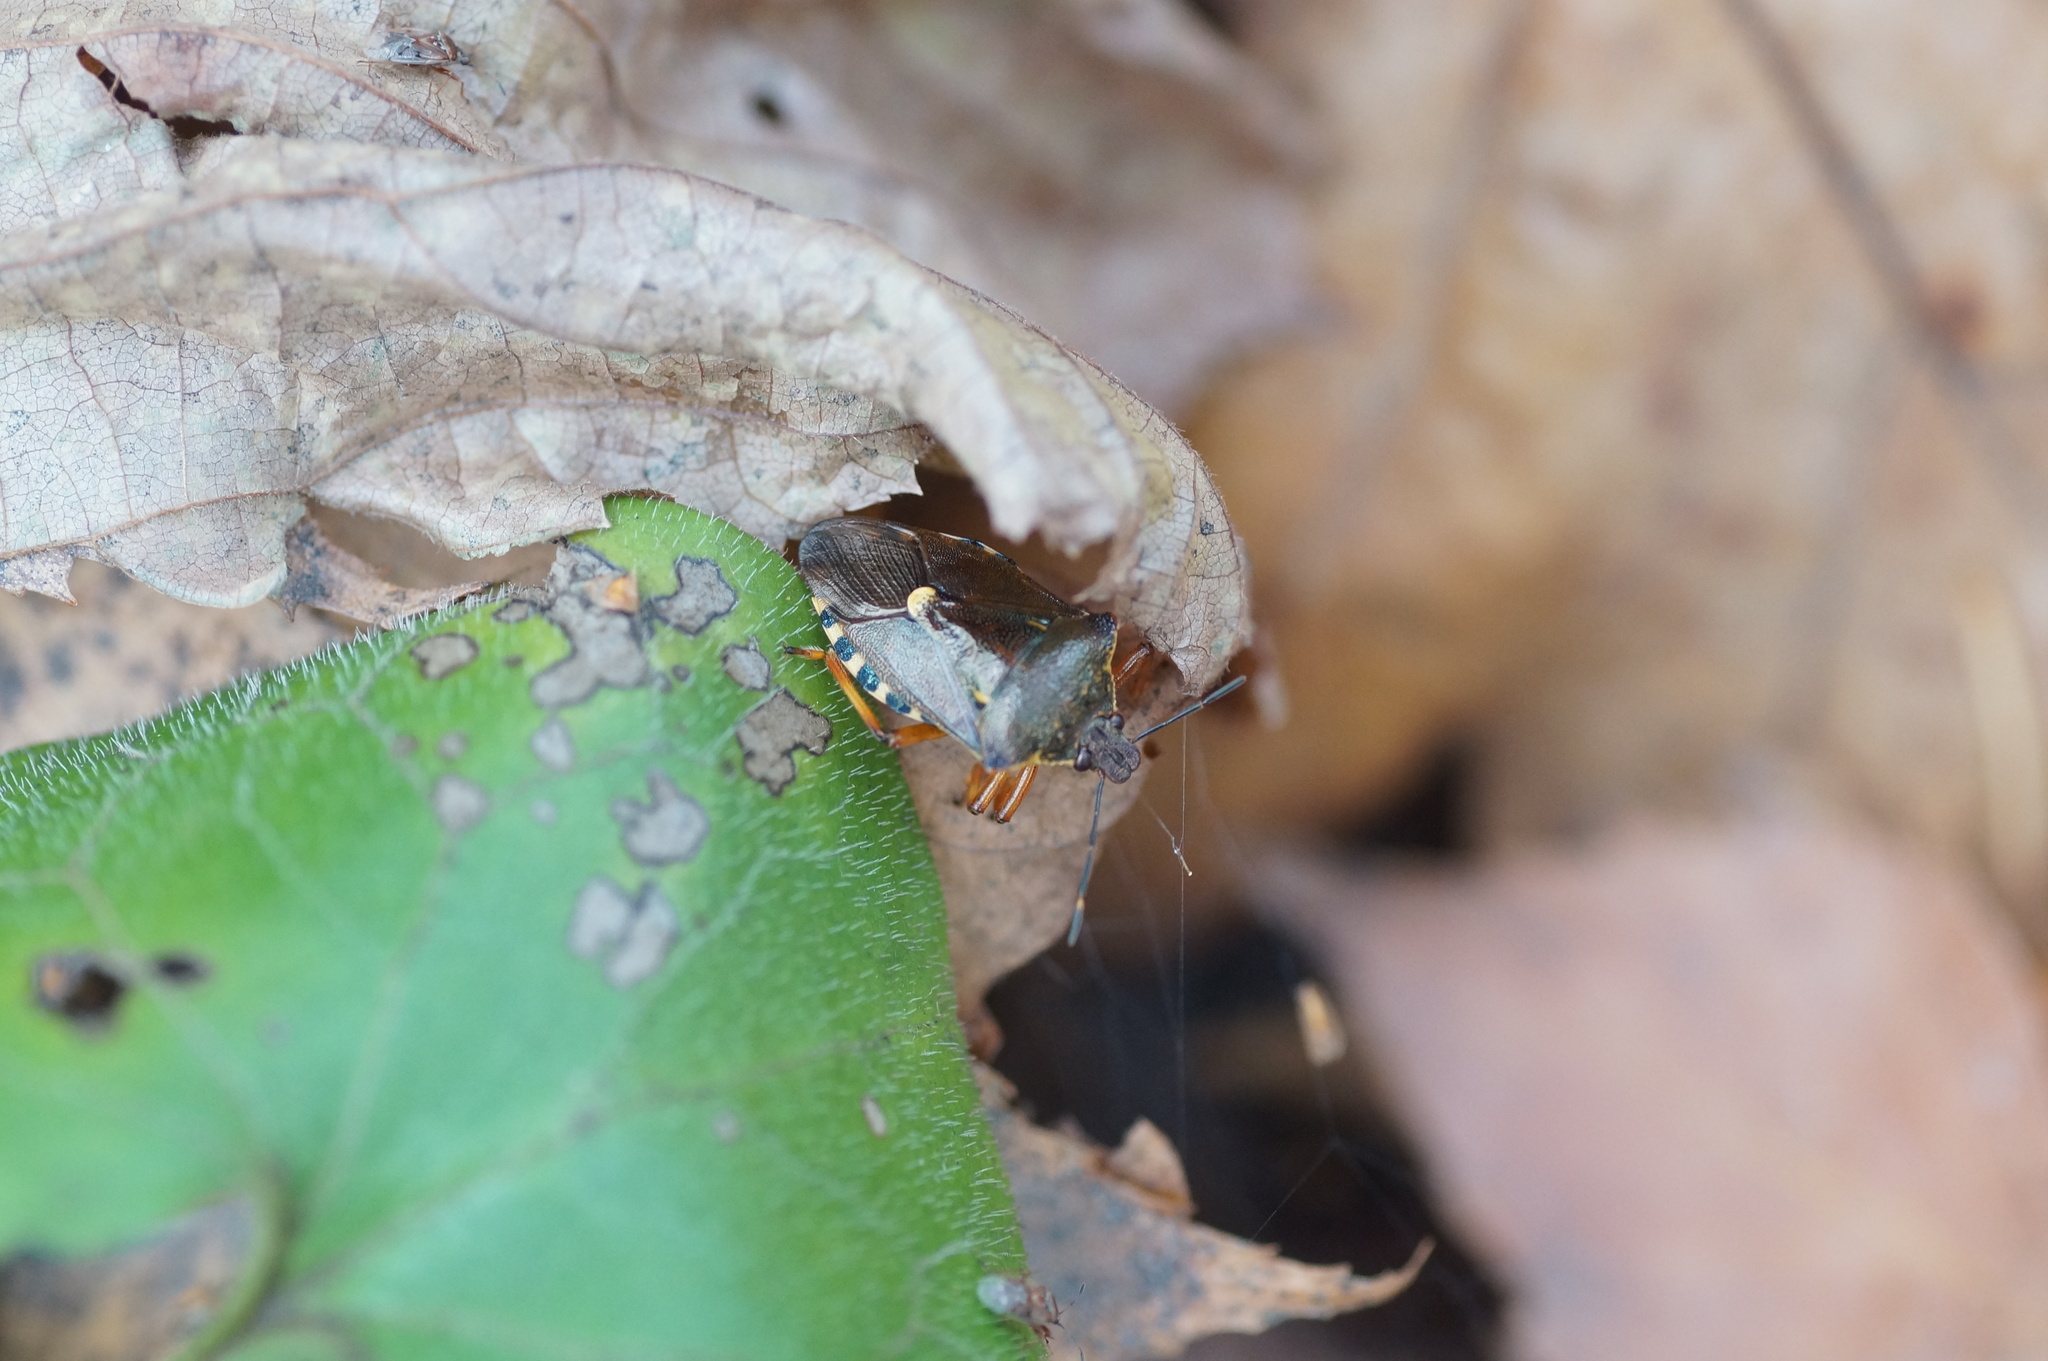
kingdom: Animalia
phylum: Arthropoda
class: Insecta
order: Hemiptera
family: Pentatomidae
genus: Pinthaeus
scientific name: Pinthaeus sanguinipes
